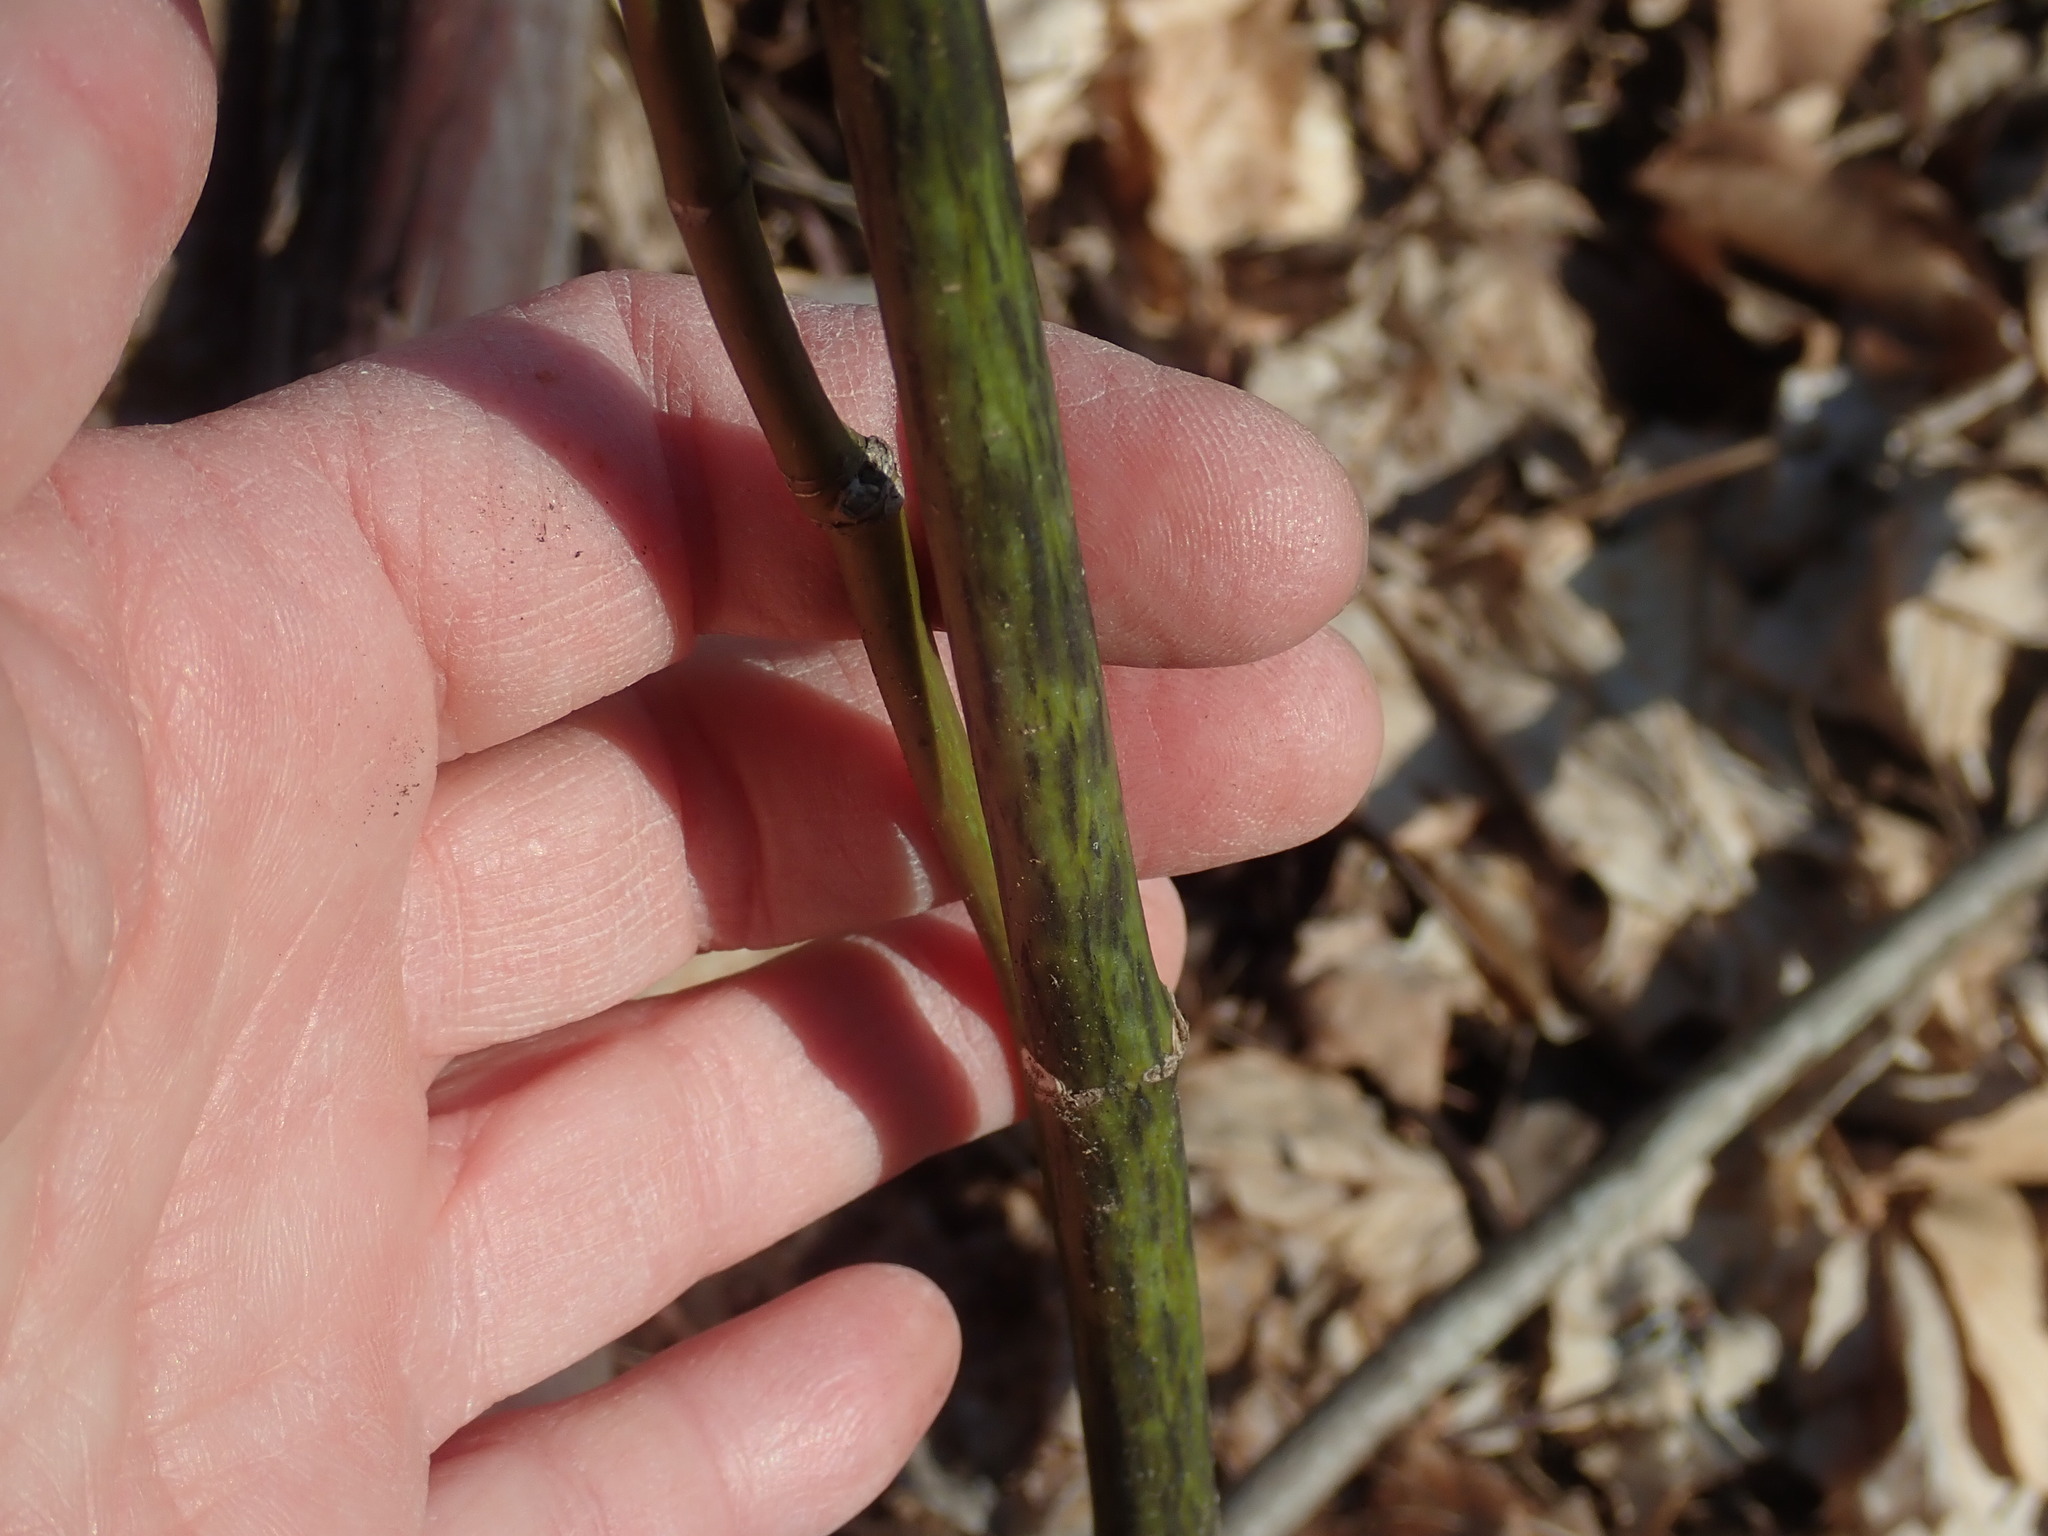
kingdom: Plantae
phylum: Tracheophyta
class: Magnoliopsida
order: Sapindales
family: Sapindaceae
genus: Acer
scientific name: Acer pensylvanicum
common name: Moosewood
